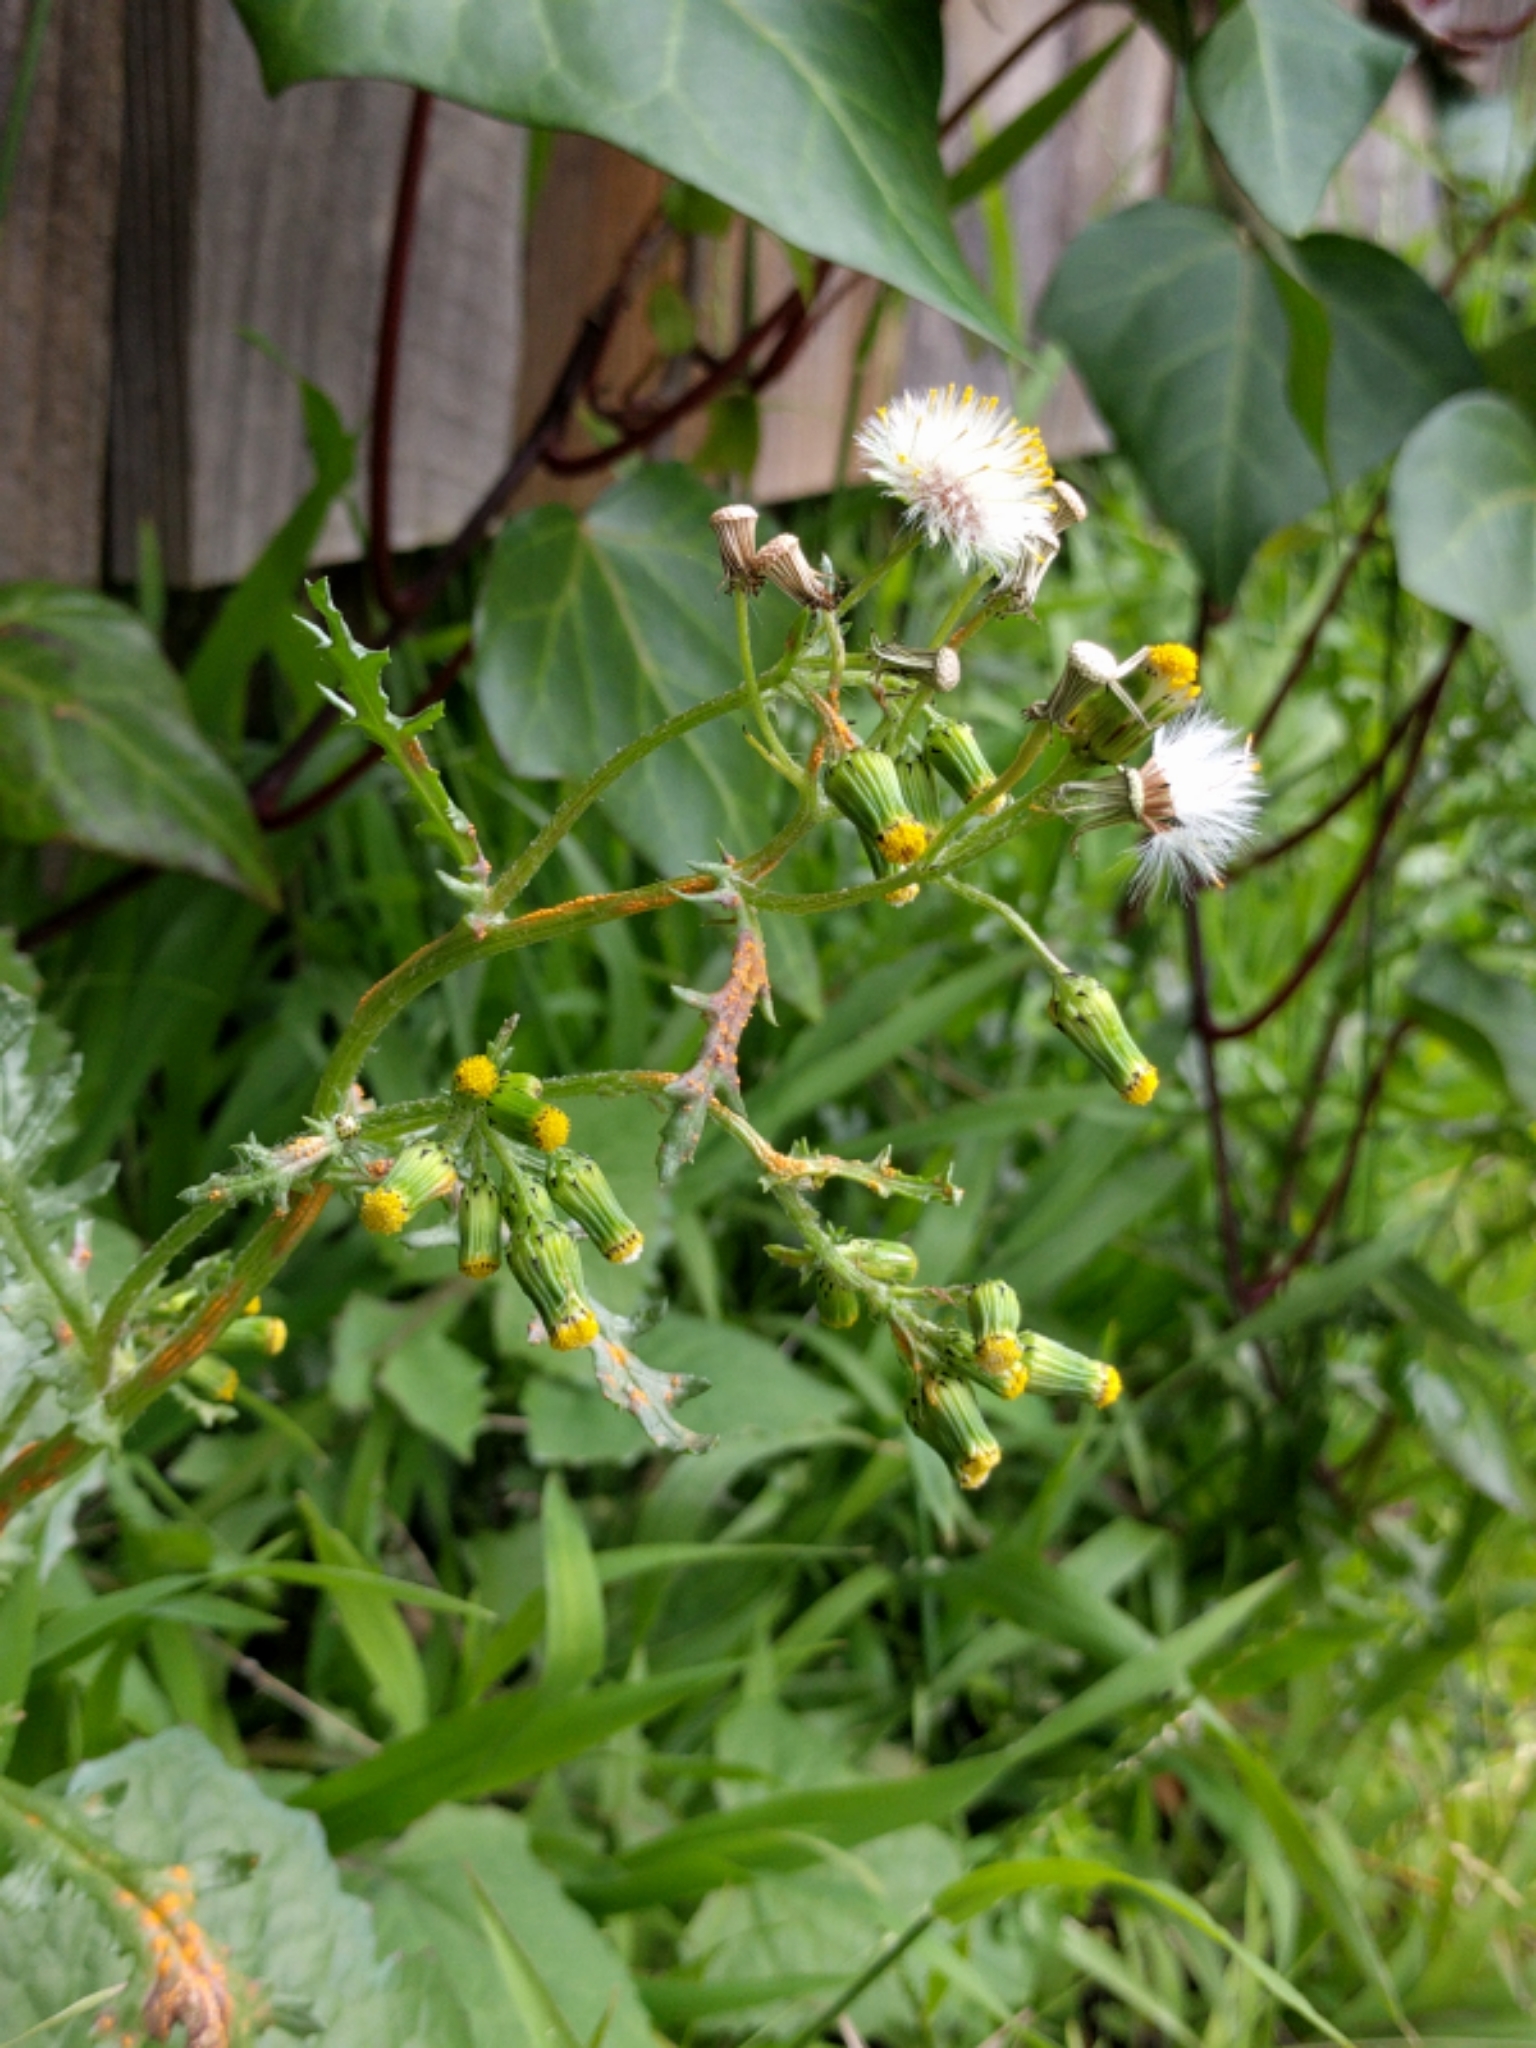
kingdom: Plantae
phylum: Tracheophyta
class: Magnoliopsida
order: Asterales
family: Asteraceae
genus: Senecio
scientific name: Senecio vulgaris
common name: Old-man-in-the-spring
